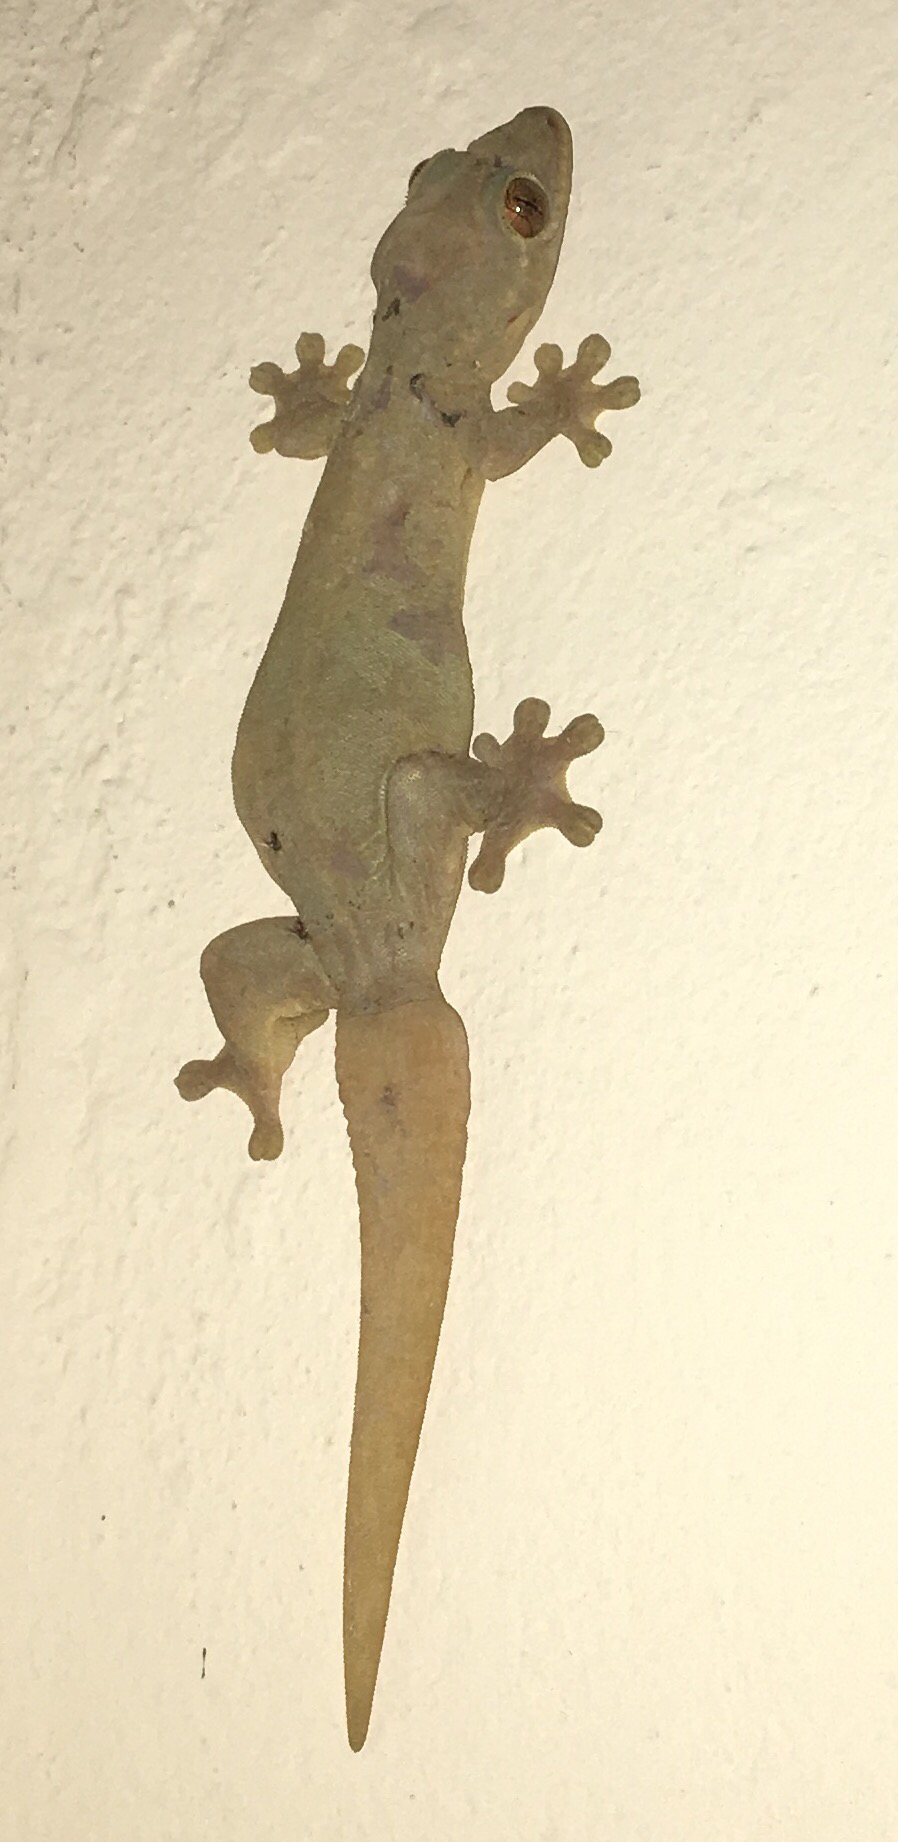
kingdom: Animalia
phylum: Chordata
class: Squamata
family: Phyllodactylidae
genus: Thecadactylus
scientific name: Thecadactylus rapicauda
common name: Turnip-tailed gecko
